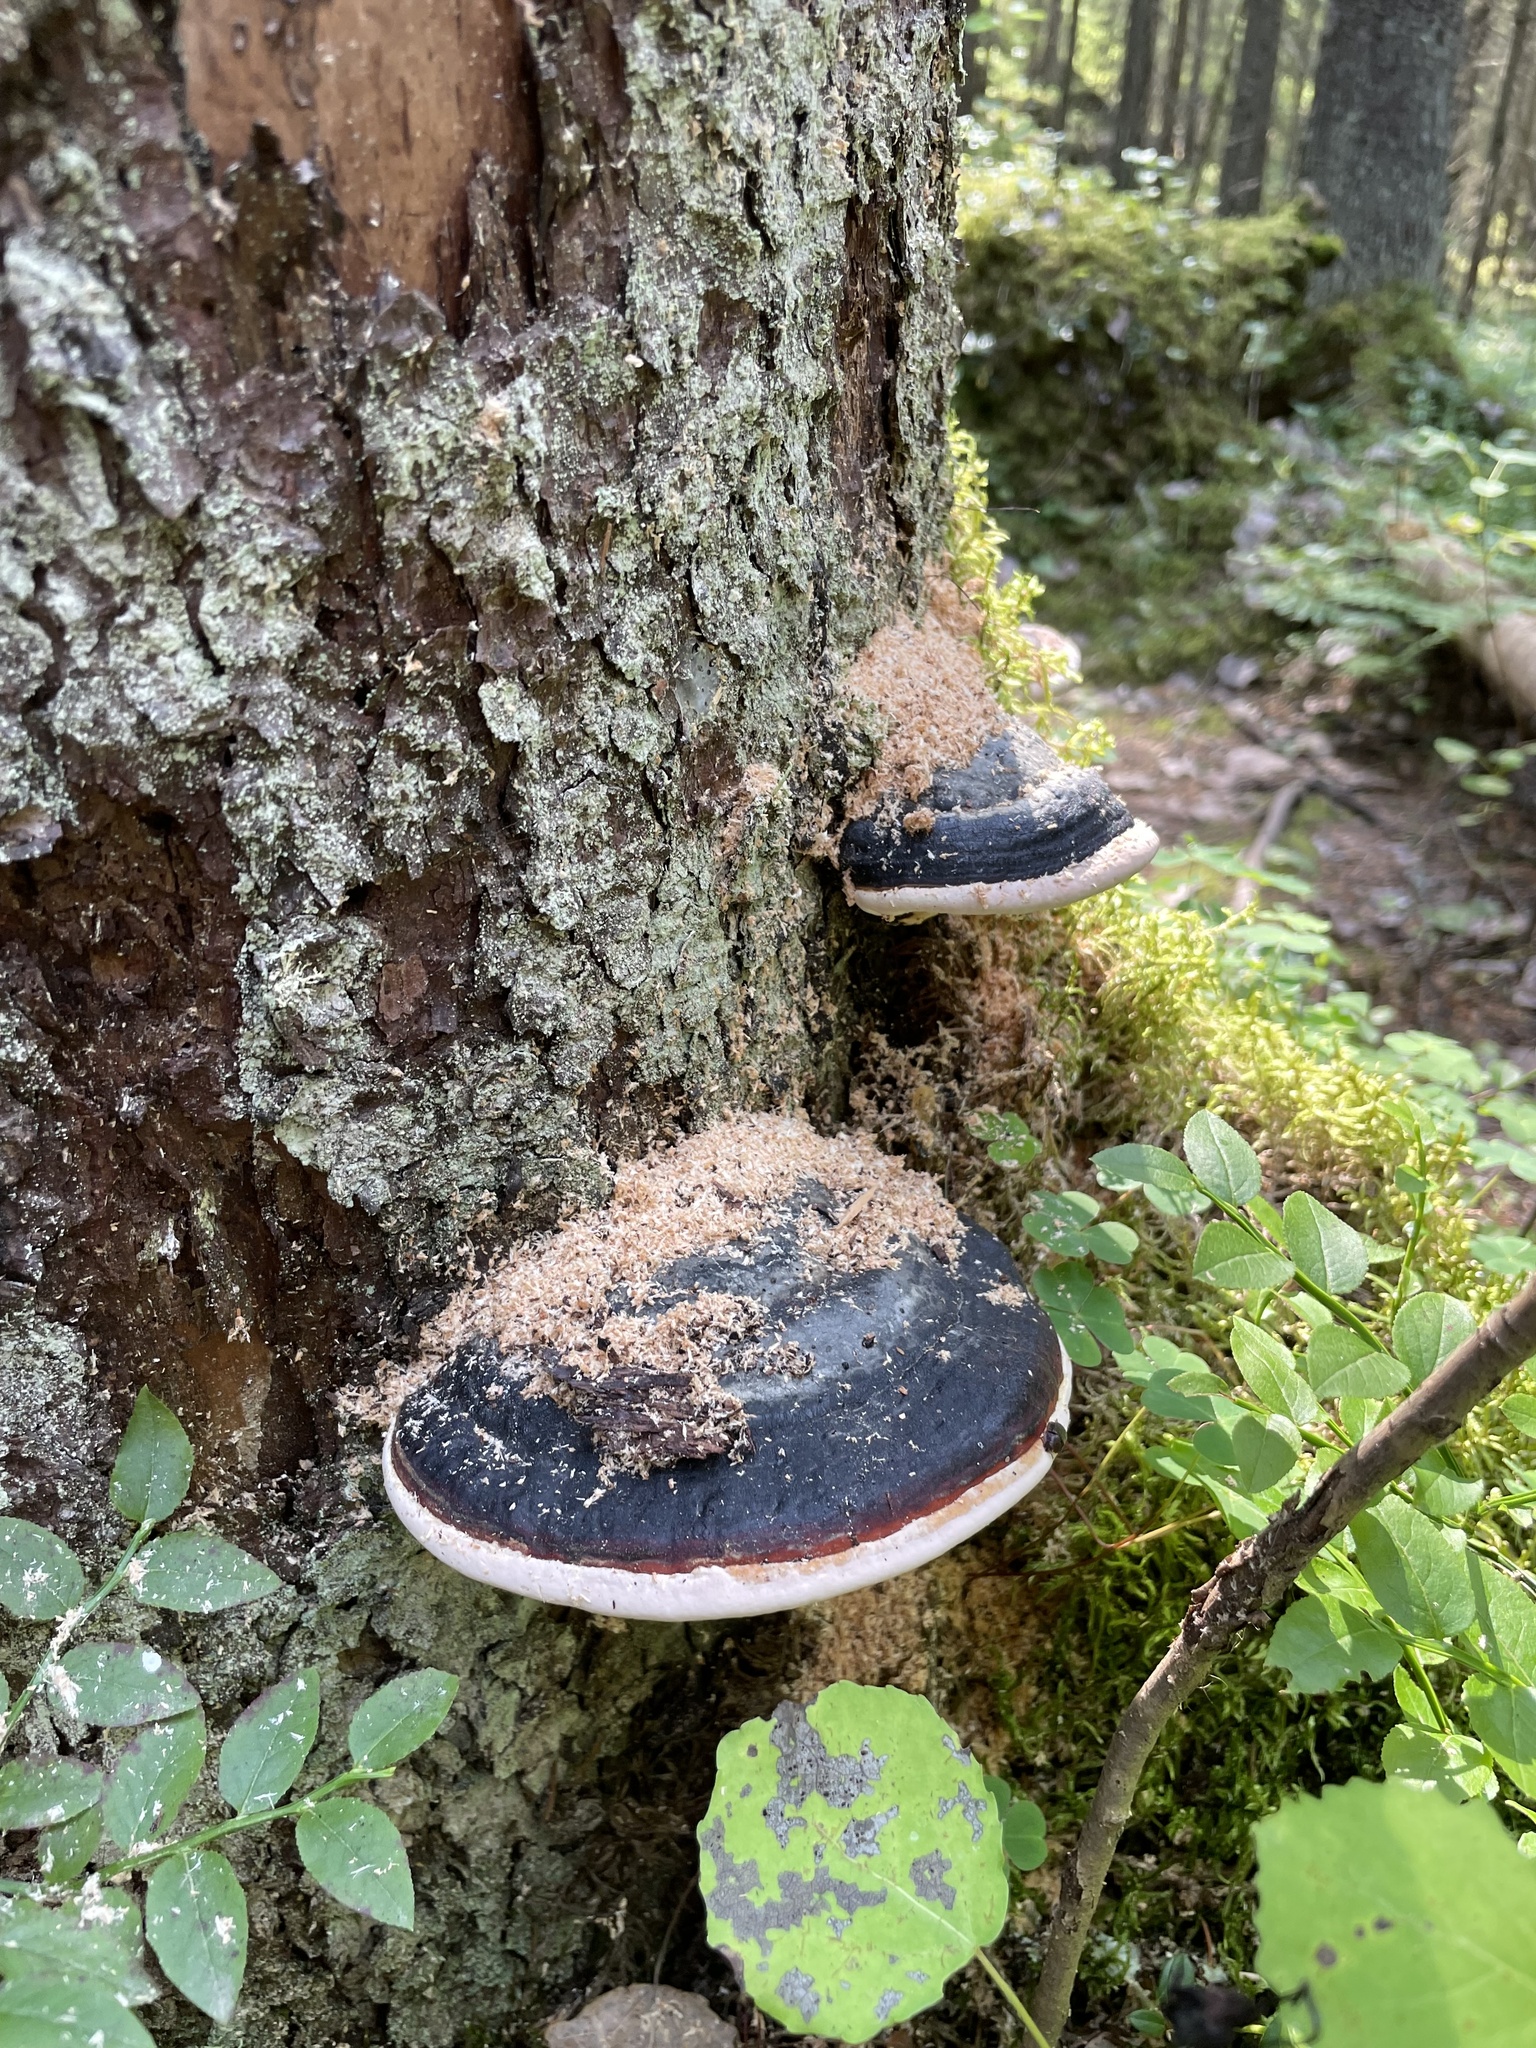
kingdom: Fungi
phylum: Basidiomycota
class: Agaricomycetes
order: Polyporales
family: Fomitopsidaceae
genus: Fomitopsis
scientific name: Fomitopsis pinicola
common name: Red-belted bracket
